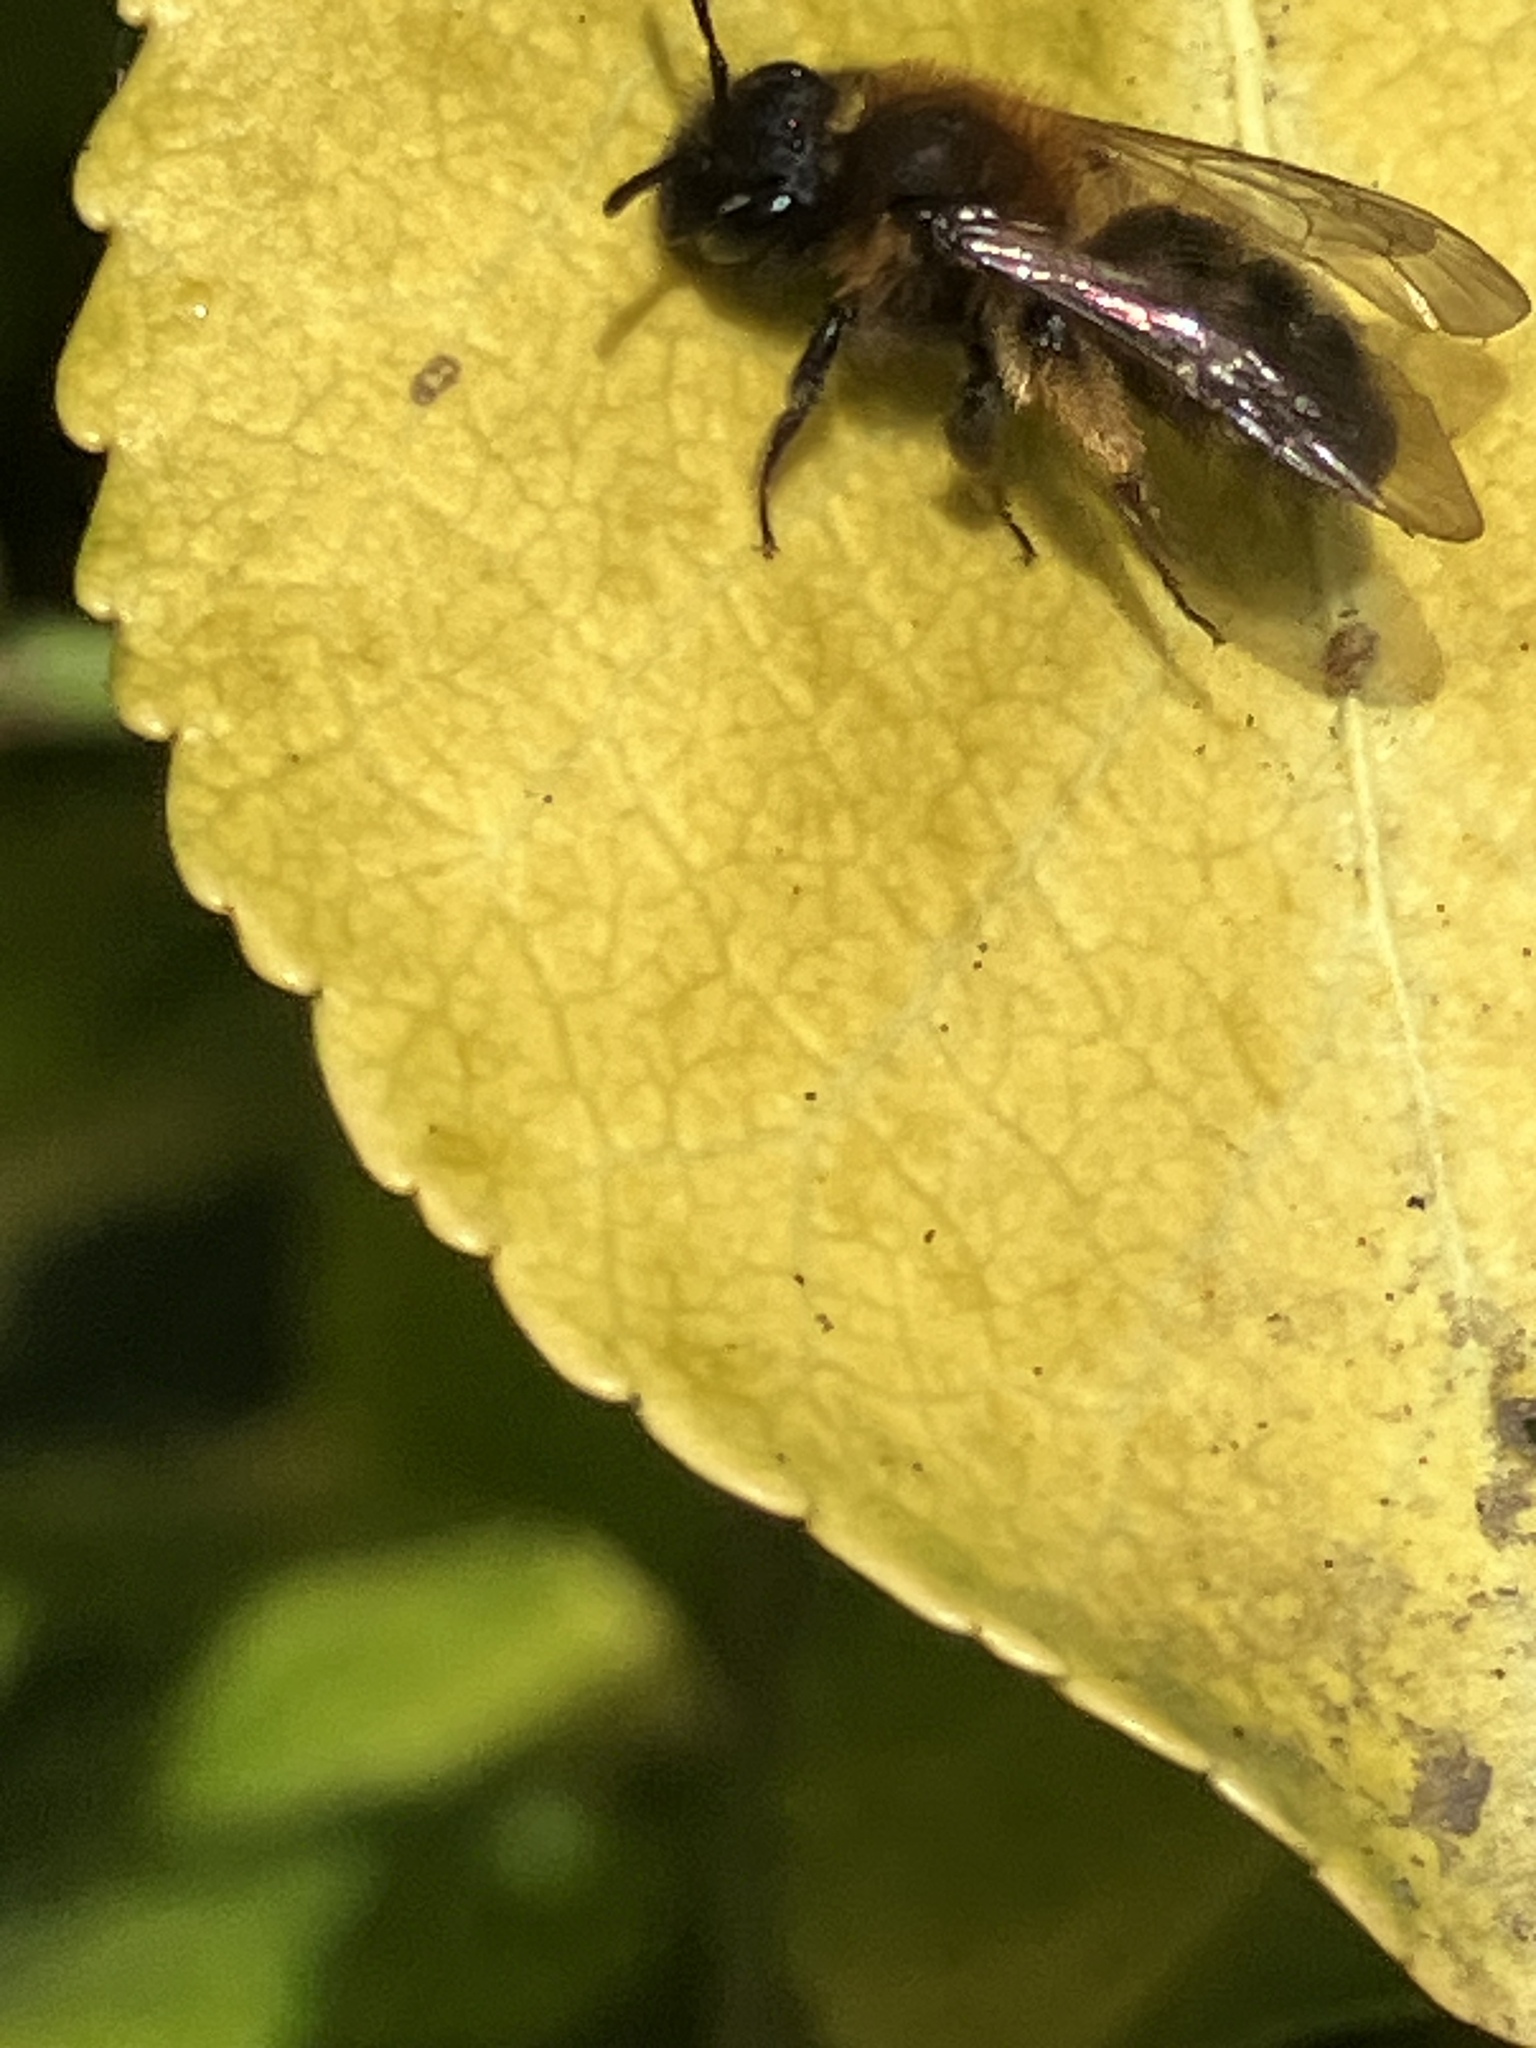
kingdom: Animalia
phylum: Arthropoda
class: Insecta
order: Hymenoptera
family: Andrenidae
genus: Andrena
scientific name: Andrena bicolor
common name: Gwynne's mining bee
